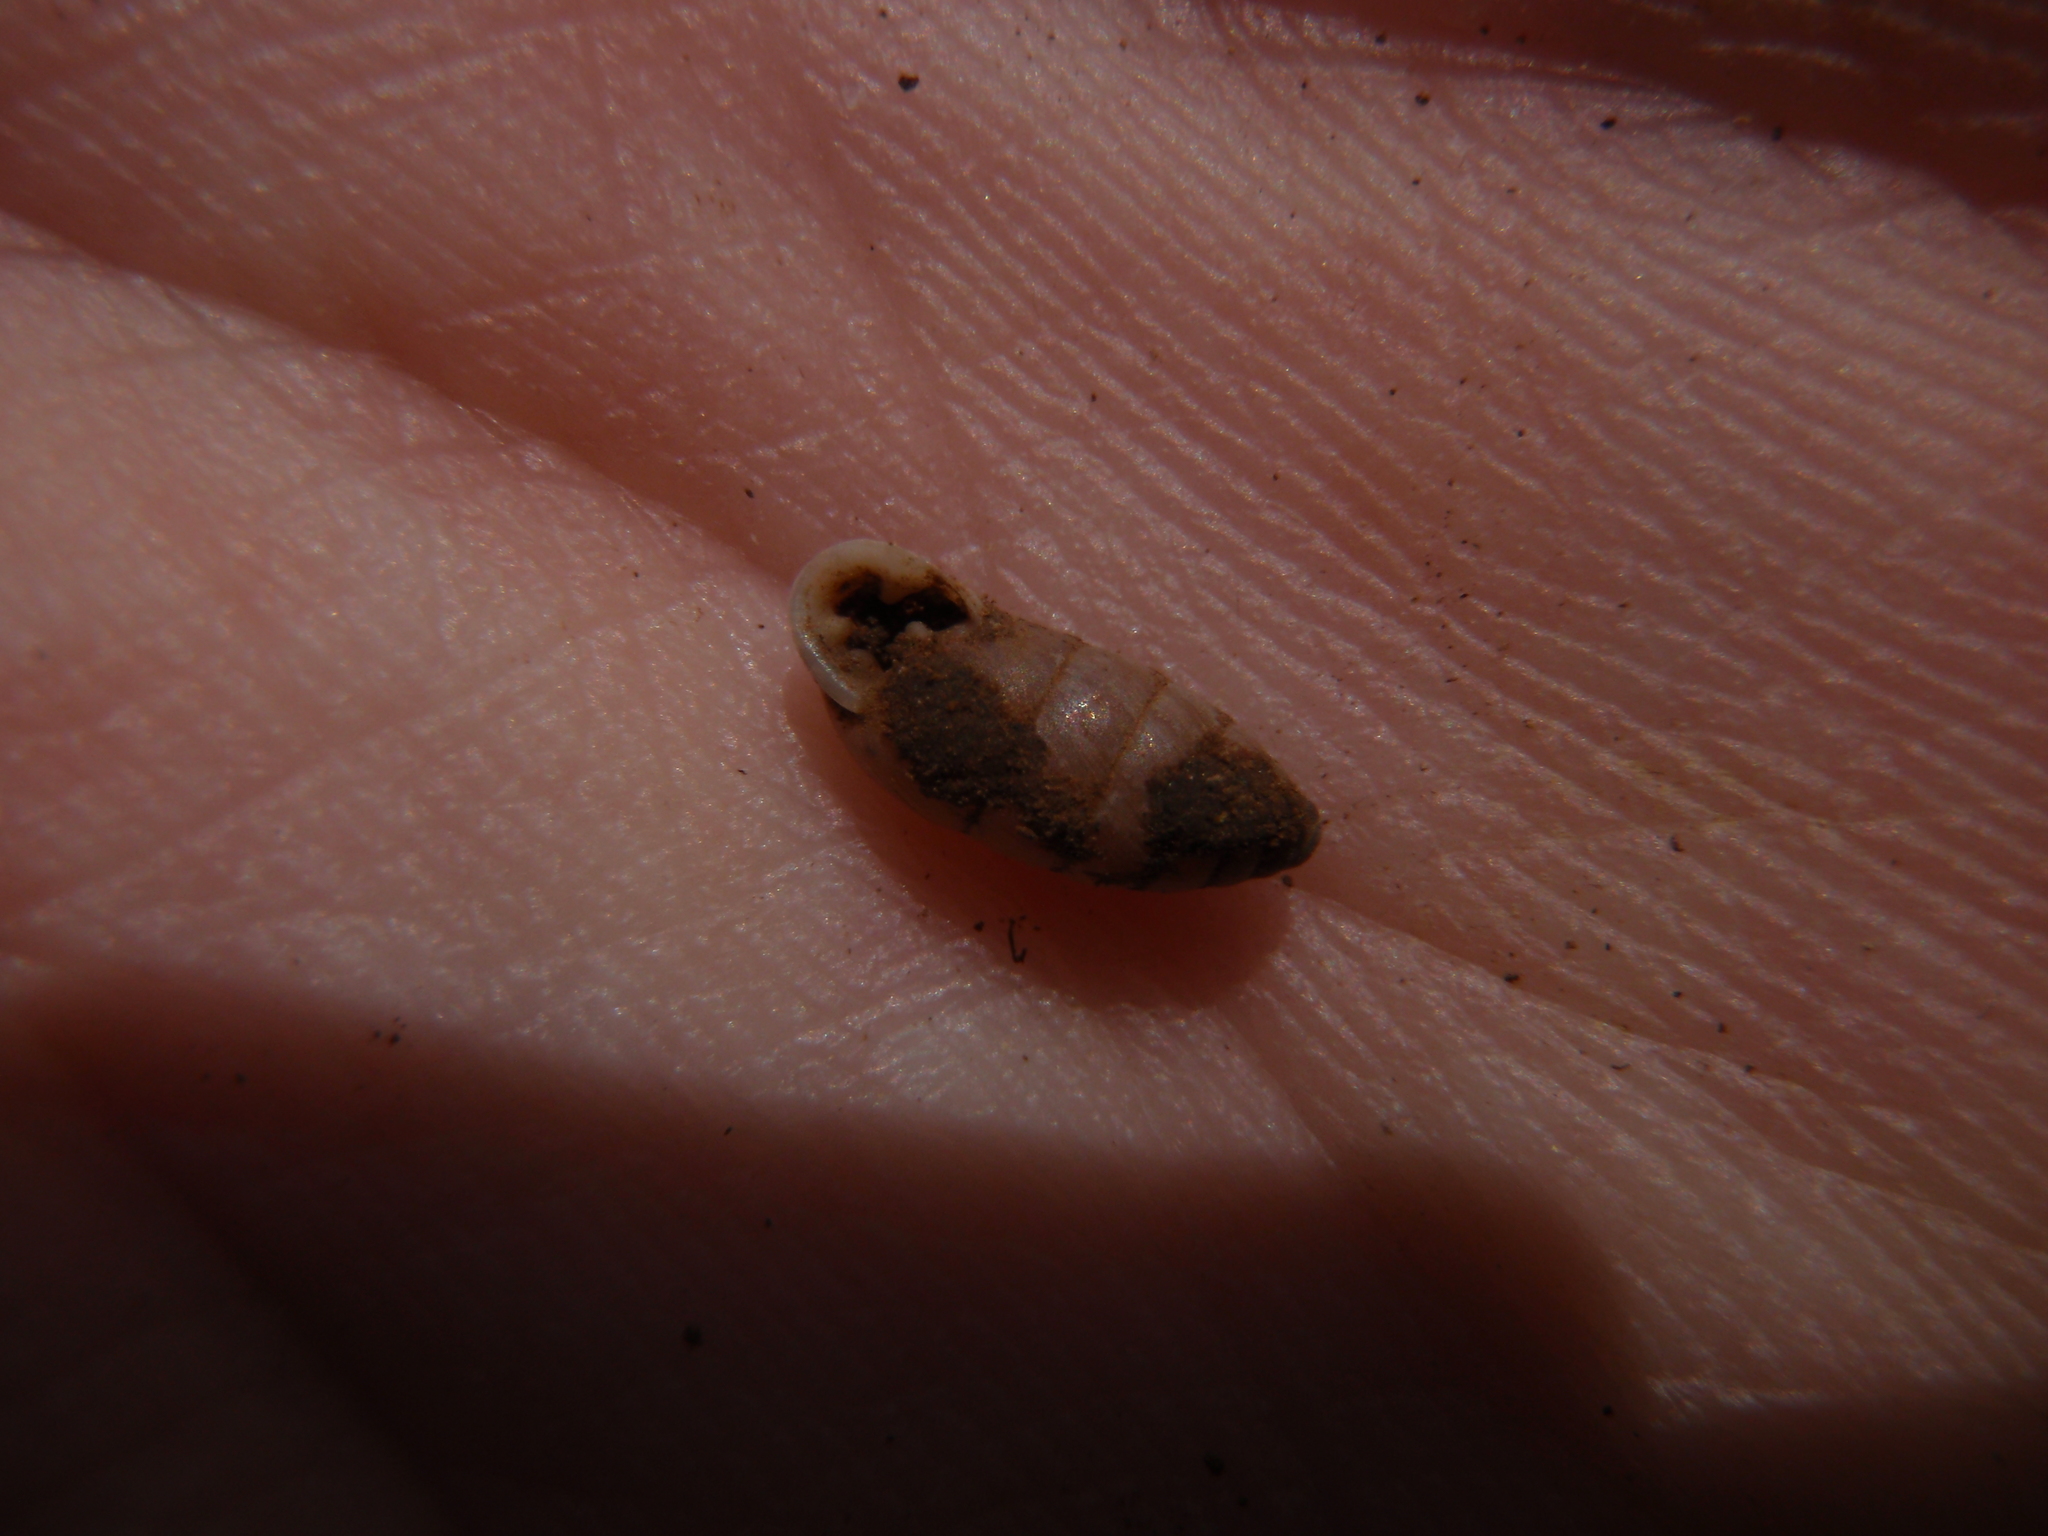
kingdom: Animalia
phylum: Mollusca
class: Gastropoda
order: Stylommatophora
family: Enidae
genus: Jaminia
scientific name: Jaminia quadridens
